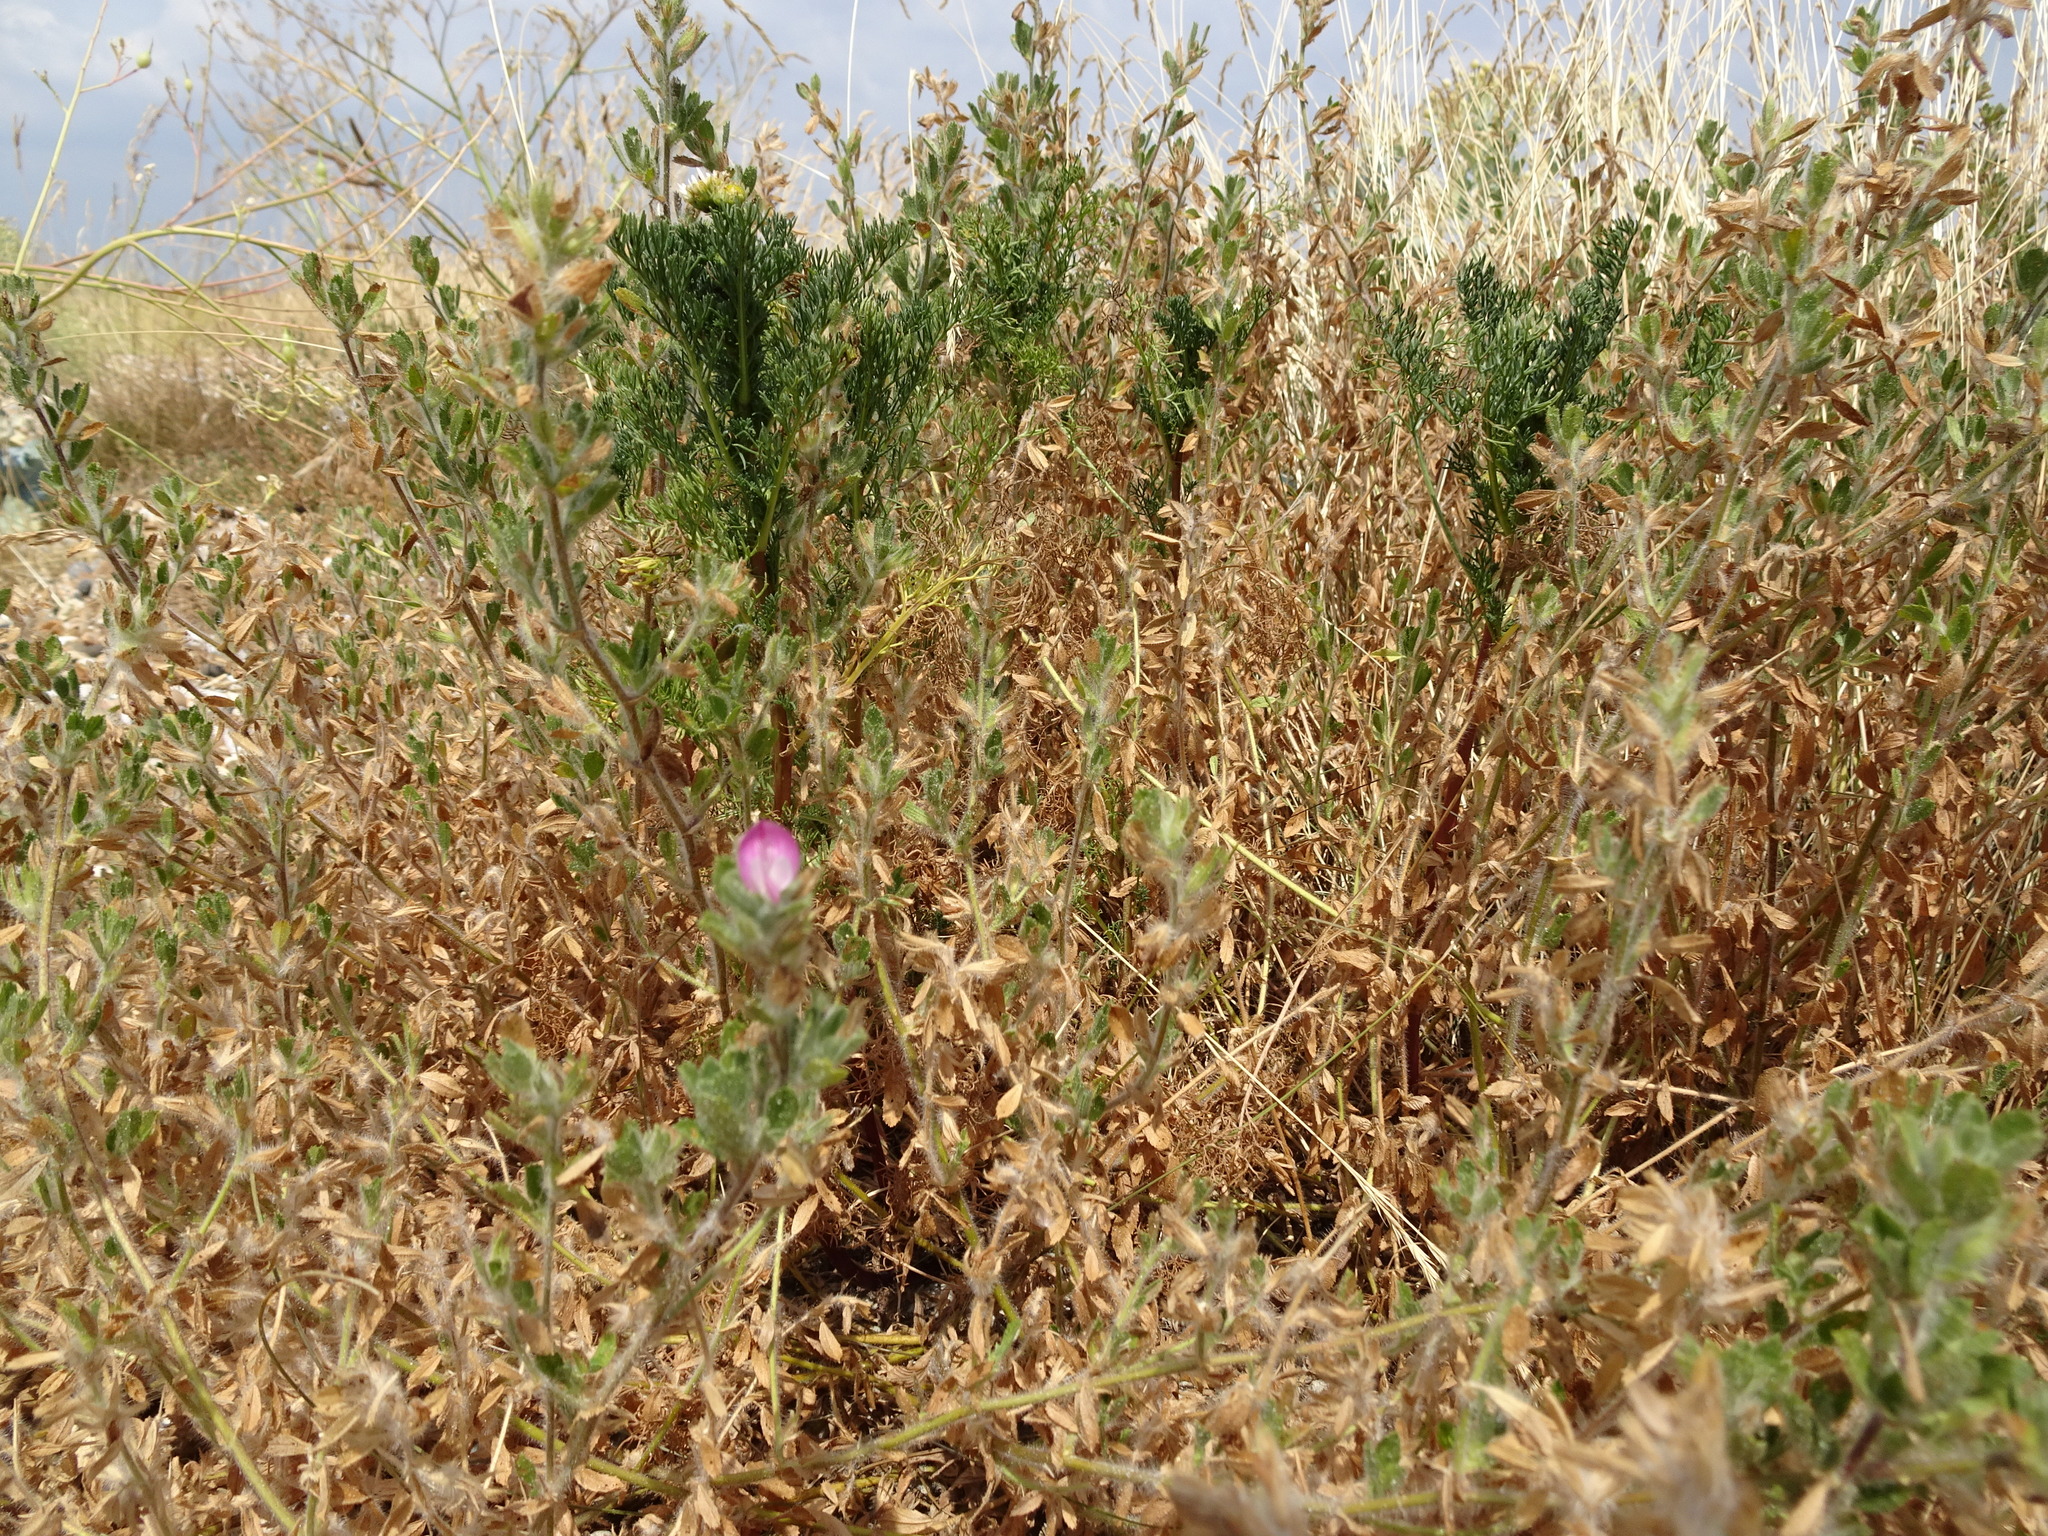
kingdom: Plantae
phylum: Tracheophyta
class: Magnoliopsida
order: Fabales
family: Fabaceae
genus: Ononis
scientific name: Ononis spinosa
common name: Spiny restharrow
